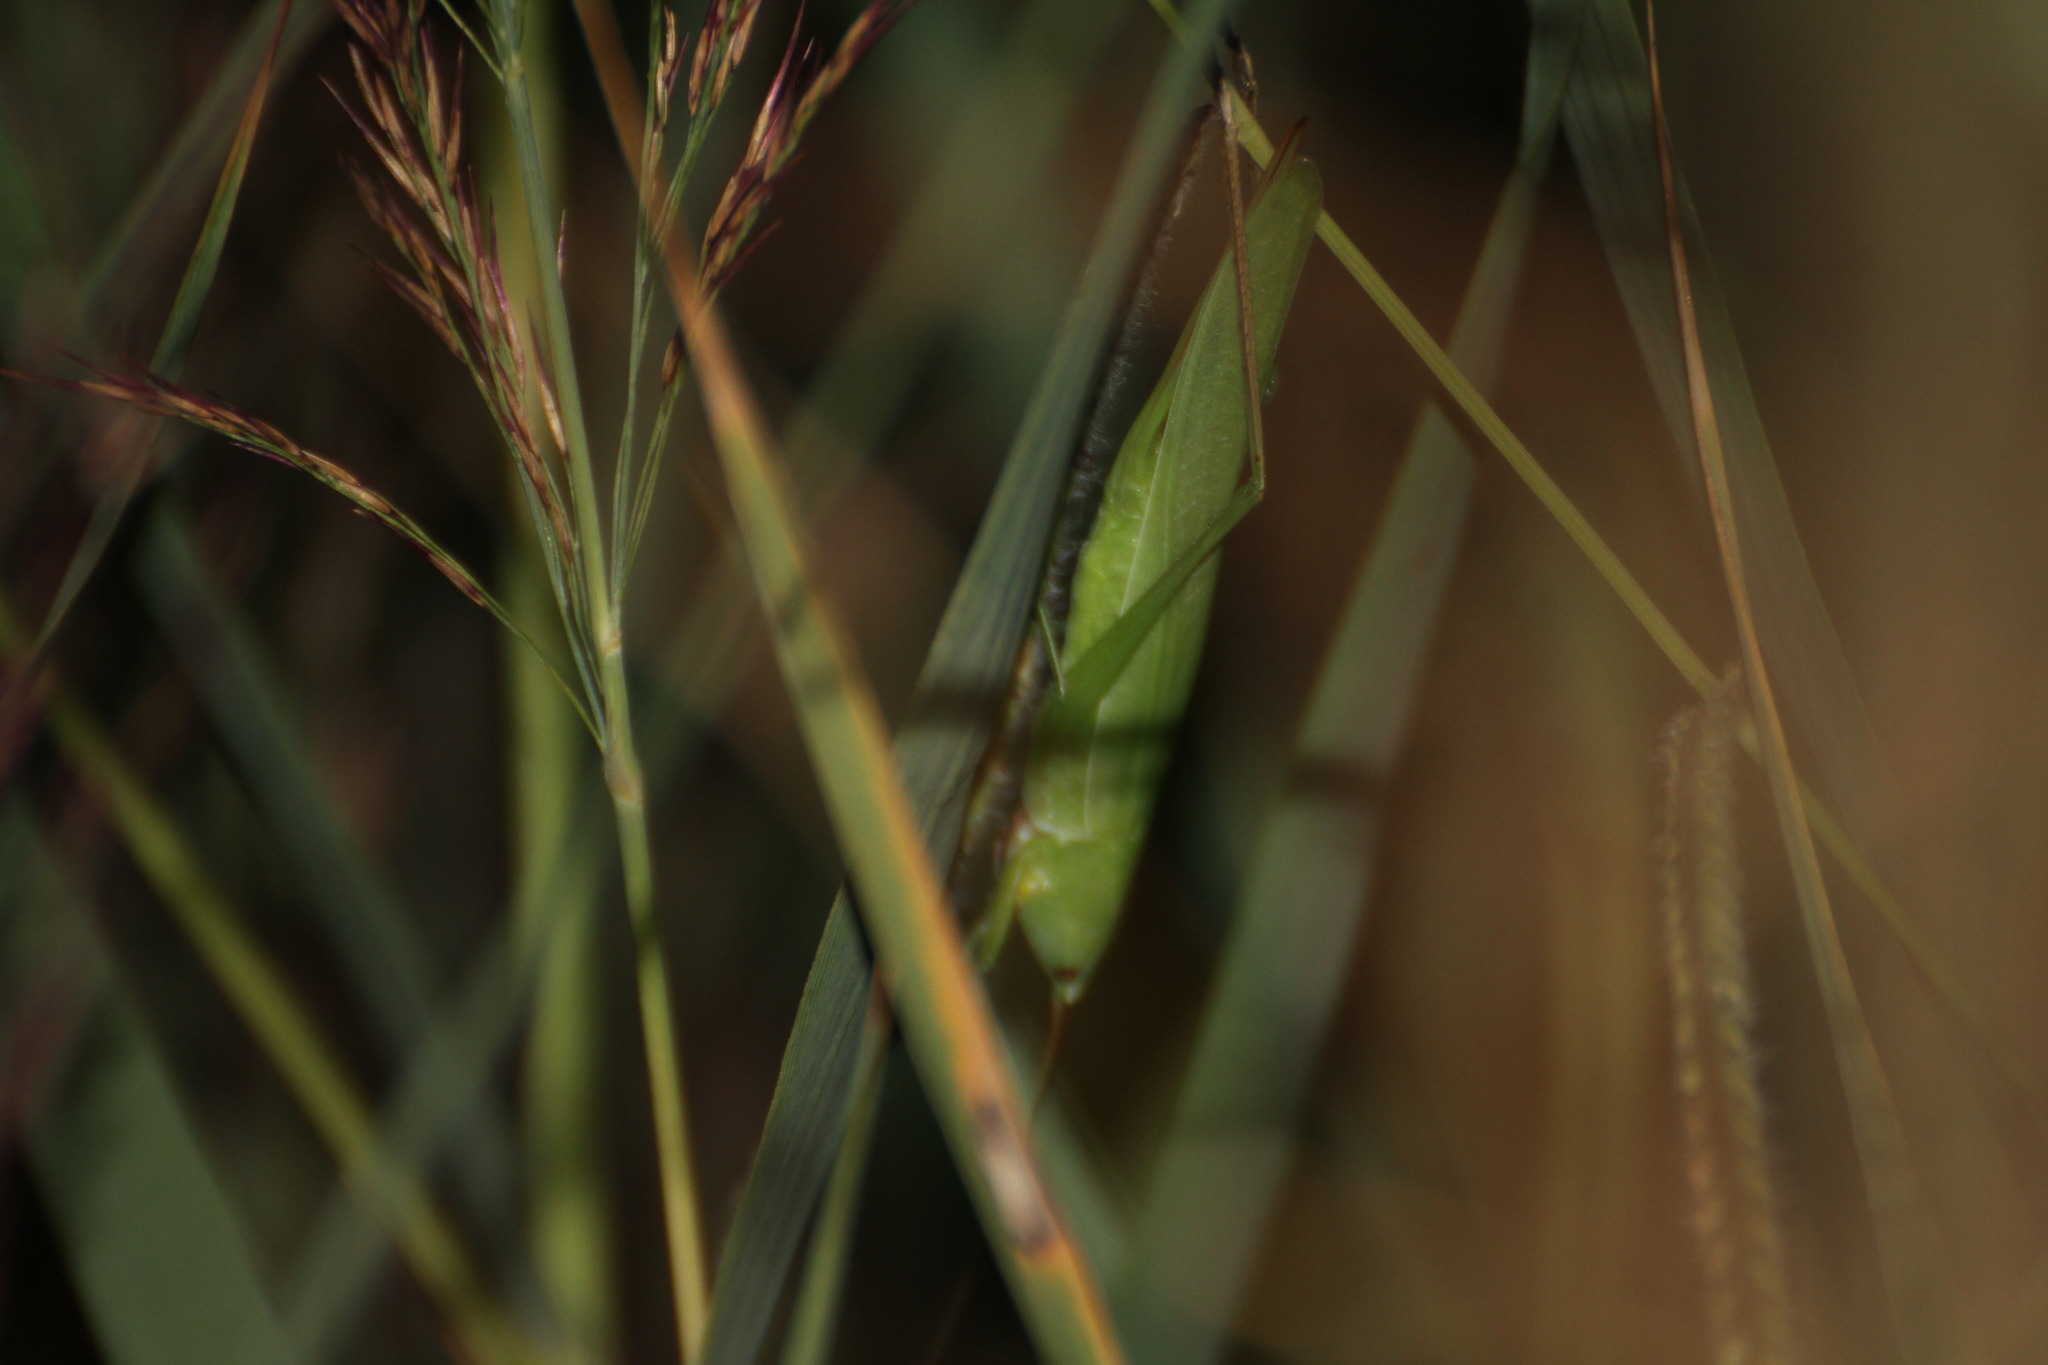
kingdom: Animalia
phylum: Arthropoda
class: Insecta
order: Orthoptera
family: Tettigoniidae
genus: Ruspolia
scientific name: Ruspolia nitidula
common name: Large conehead
